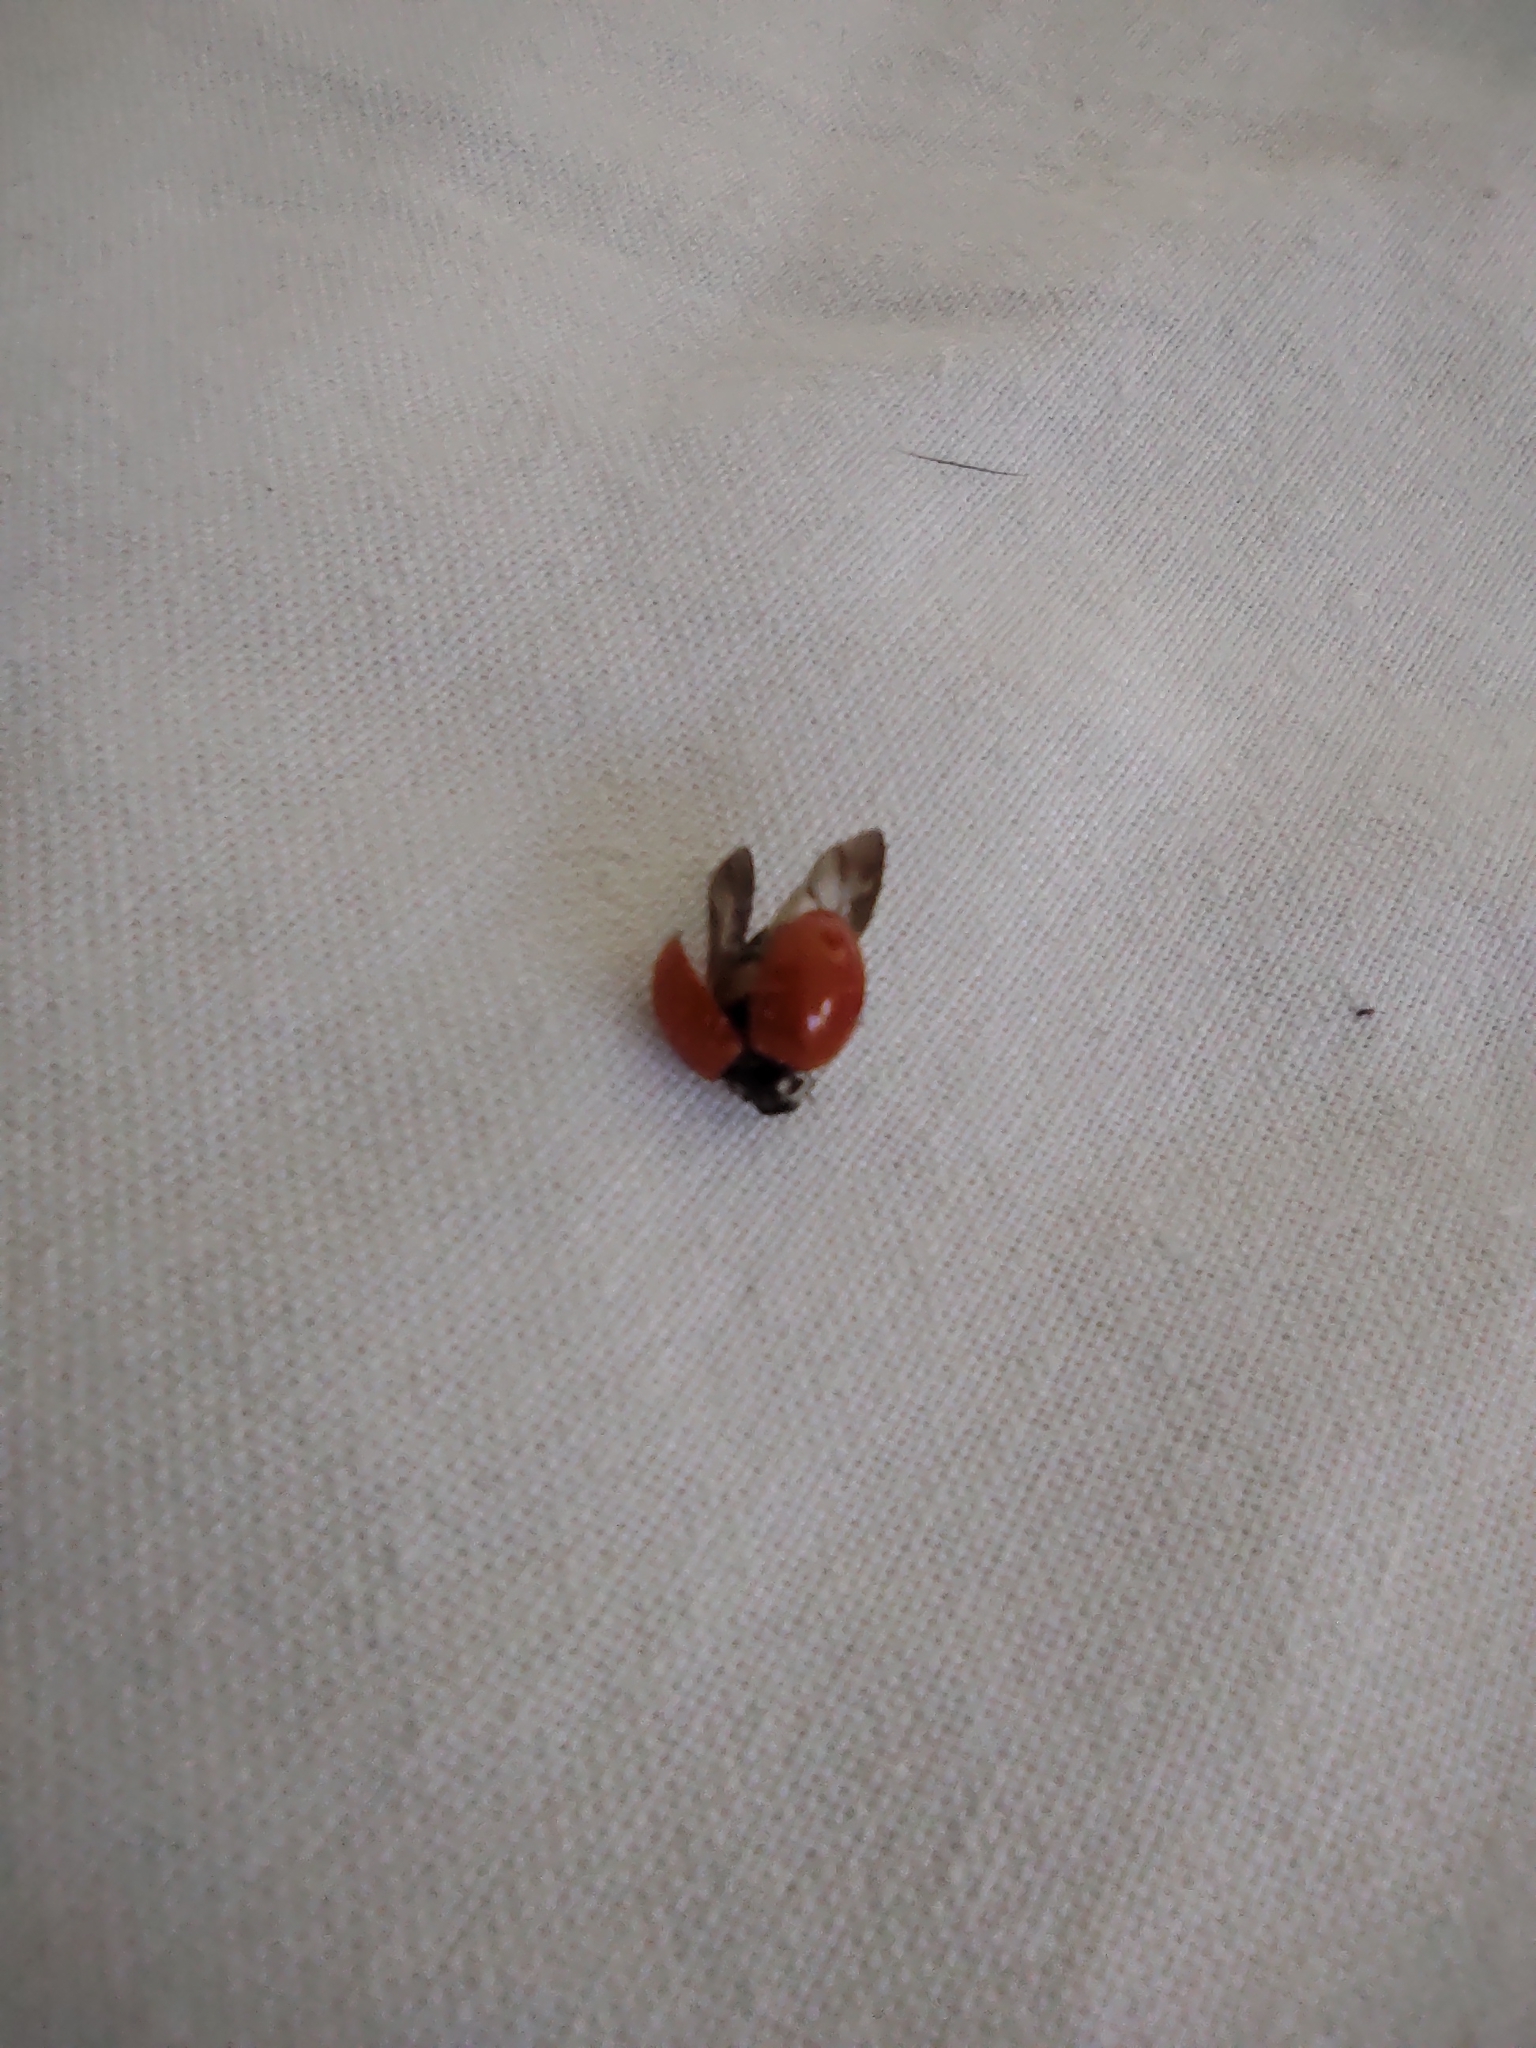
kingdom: Animalia
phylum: Arthropoda
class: Insecta
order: Coleoptera
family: Coccinellidae
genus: Cycloneda
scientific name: Cycloneda sanguinea
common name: Ladybird beetle
